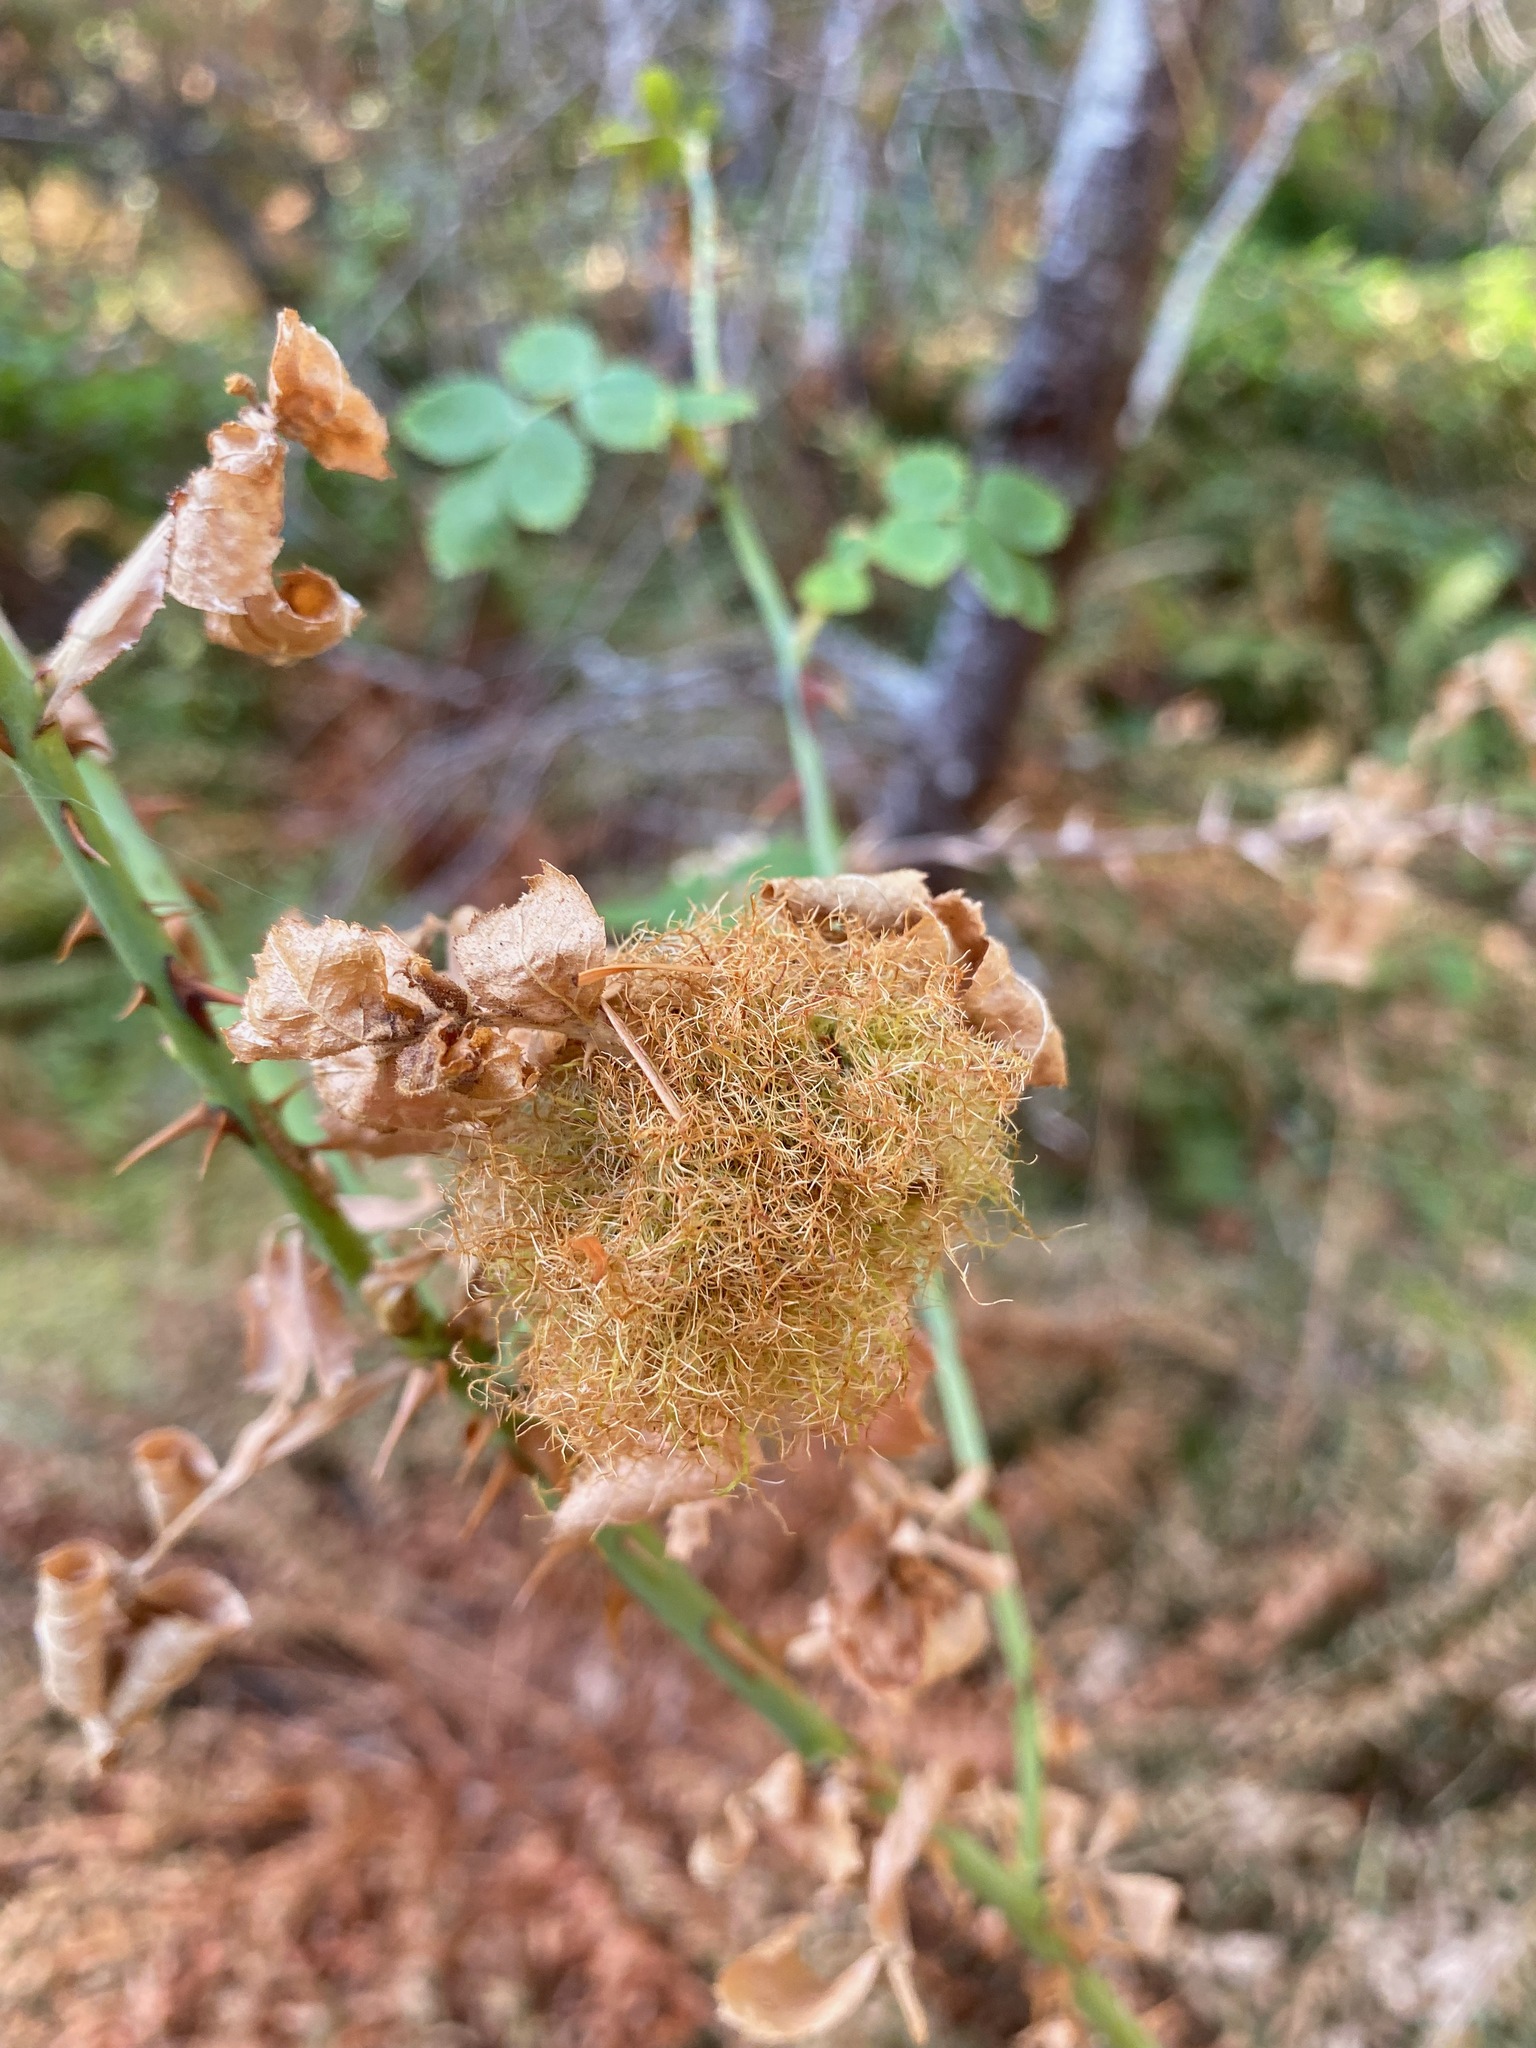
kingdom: Animalia
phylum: Arthropoda
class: Insecta
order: Hymenoptera
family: Cynipidae
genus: Diplolepis
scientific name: Diplolepis rosae
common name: Bedeguar gall
